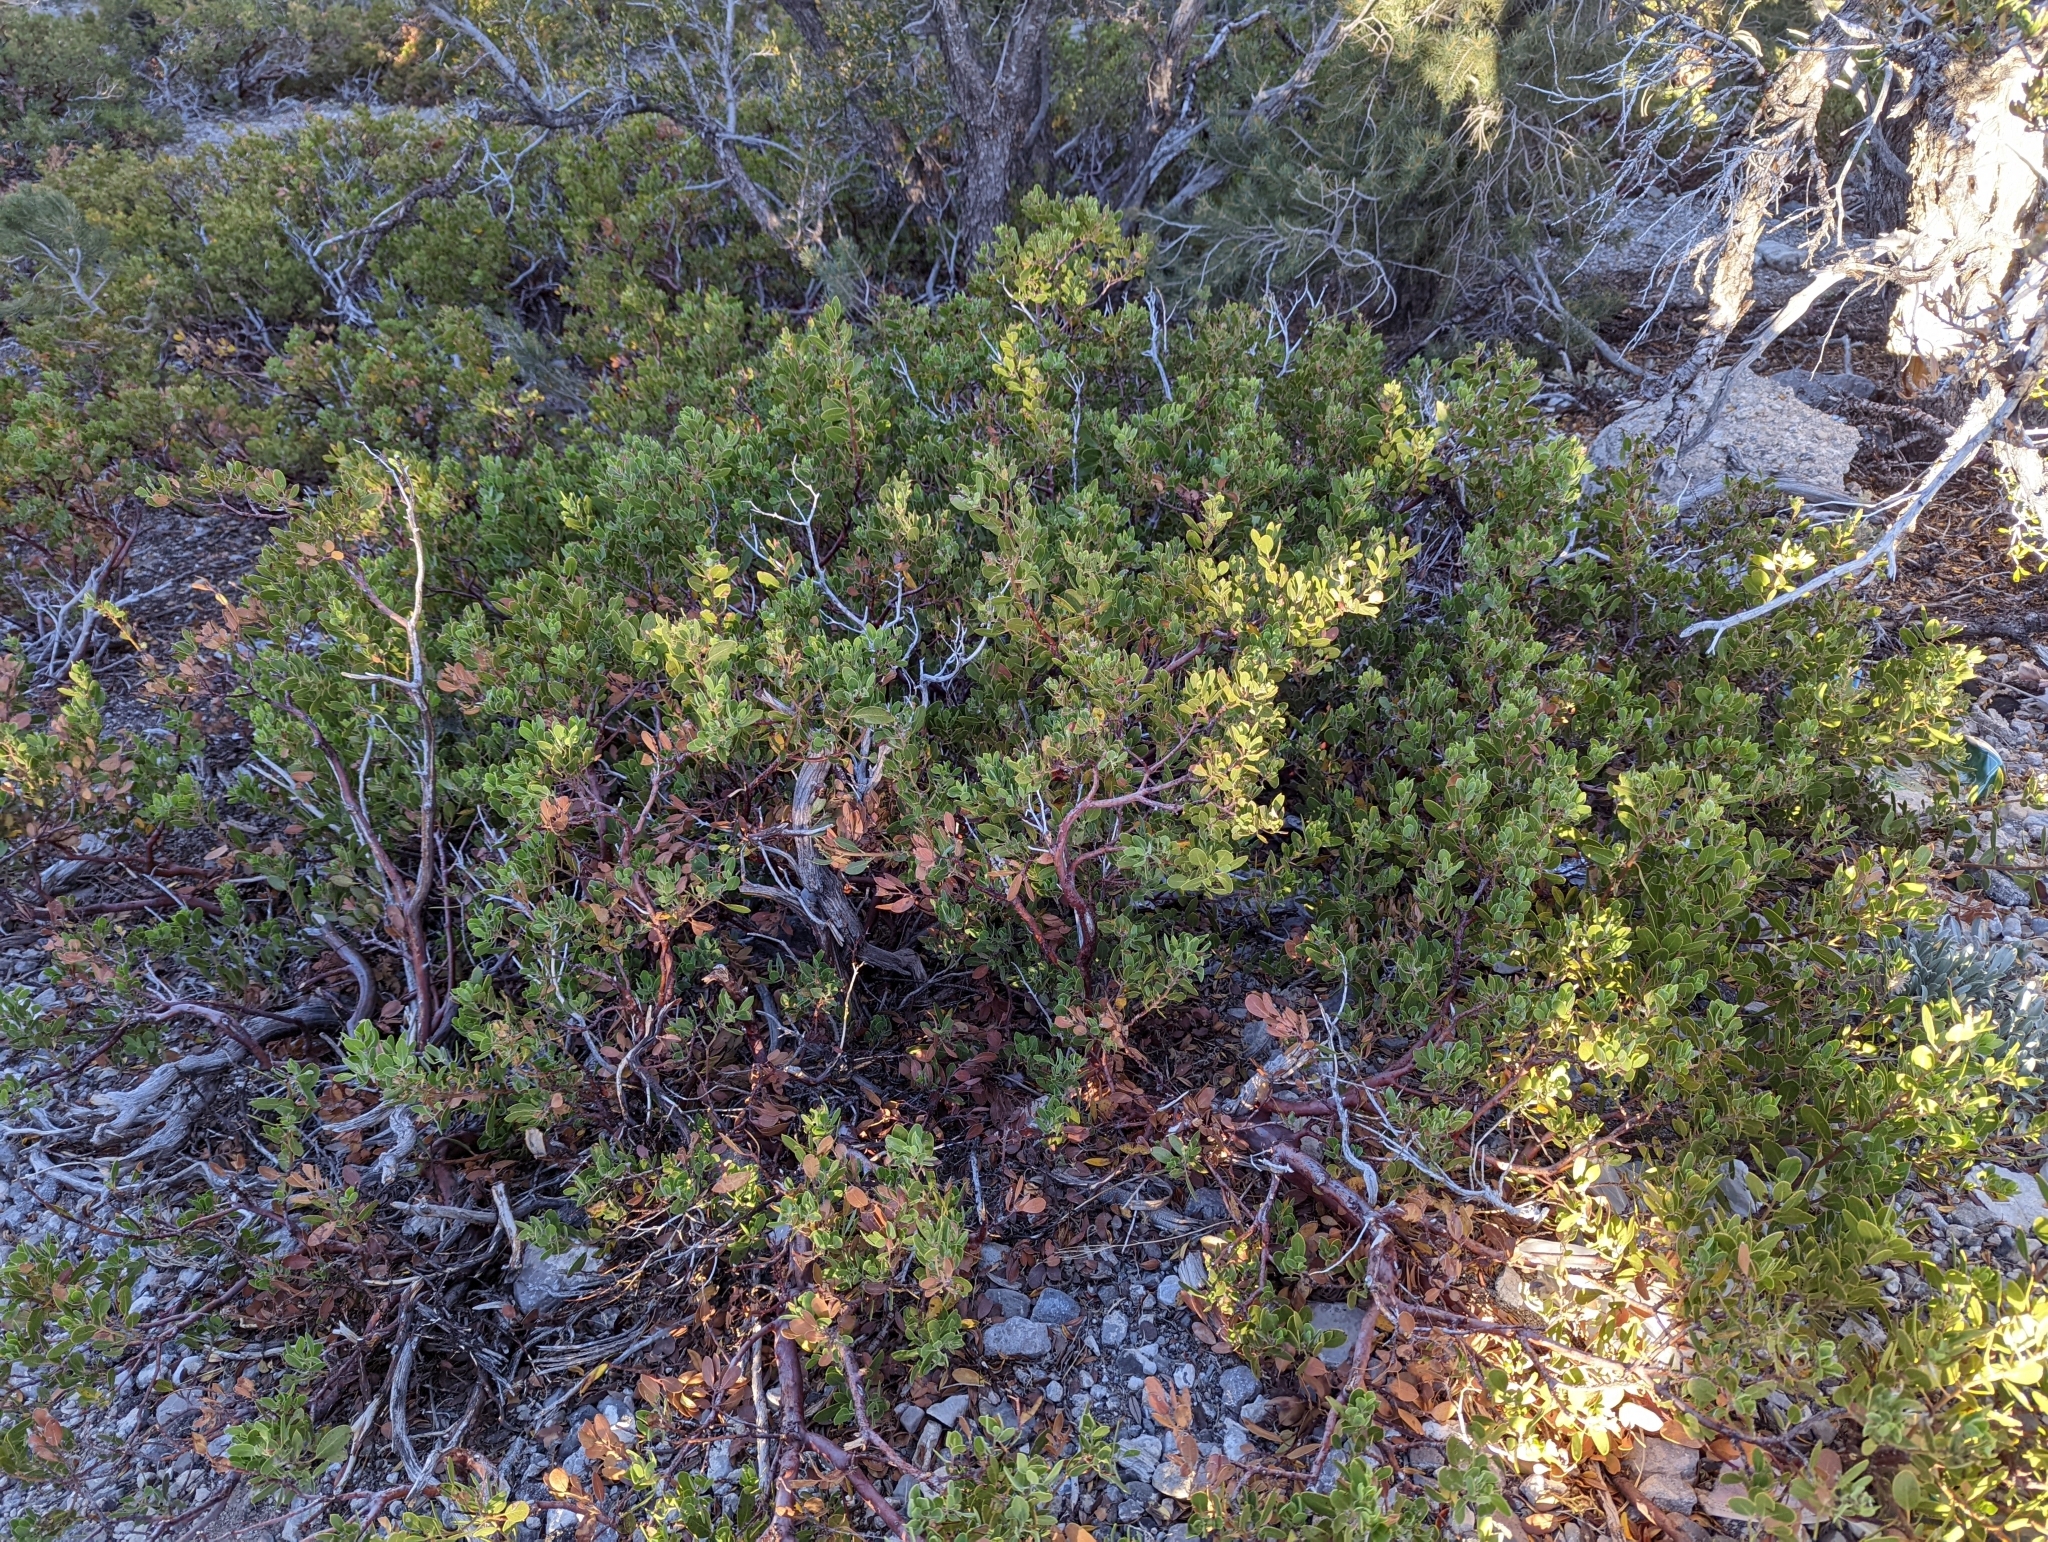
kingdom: Plantae
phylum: Tracheophyta
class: Magnoliopsida
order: Ericales
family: Ericaceae
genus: Arctostaphylos
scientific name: Arctostaphylos pungens
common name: Mexican manzanita
